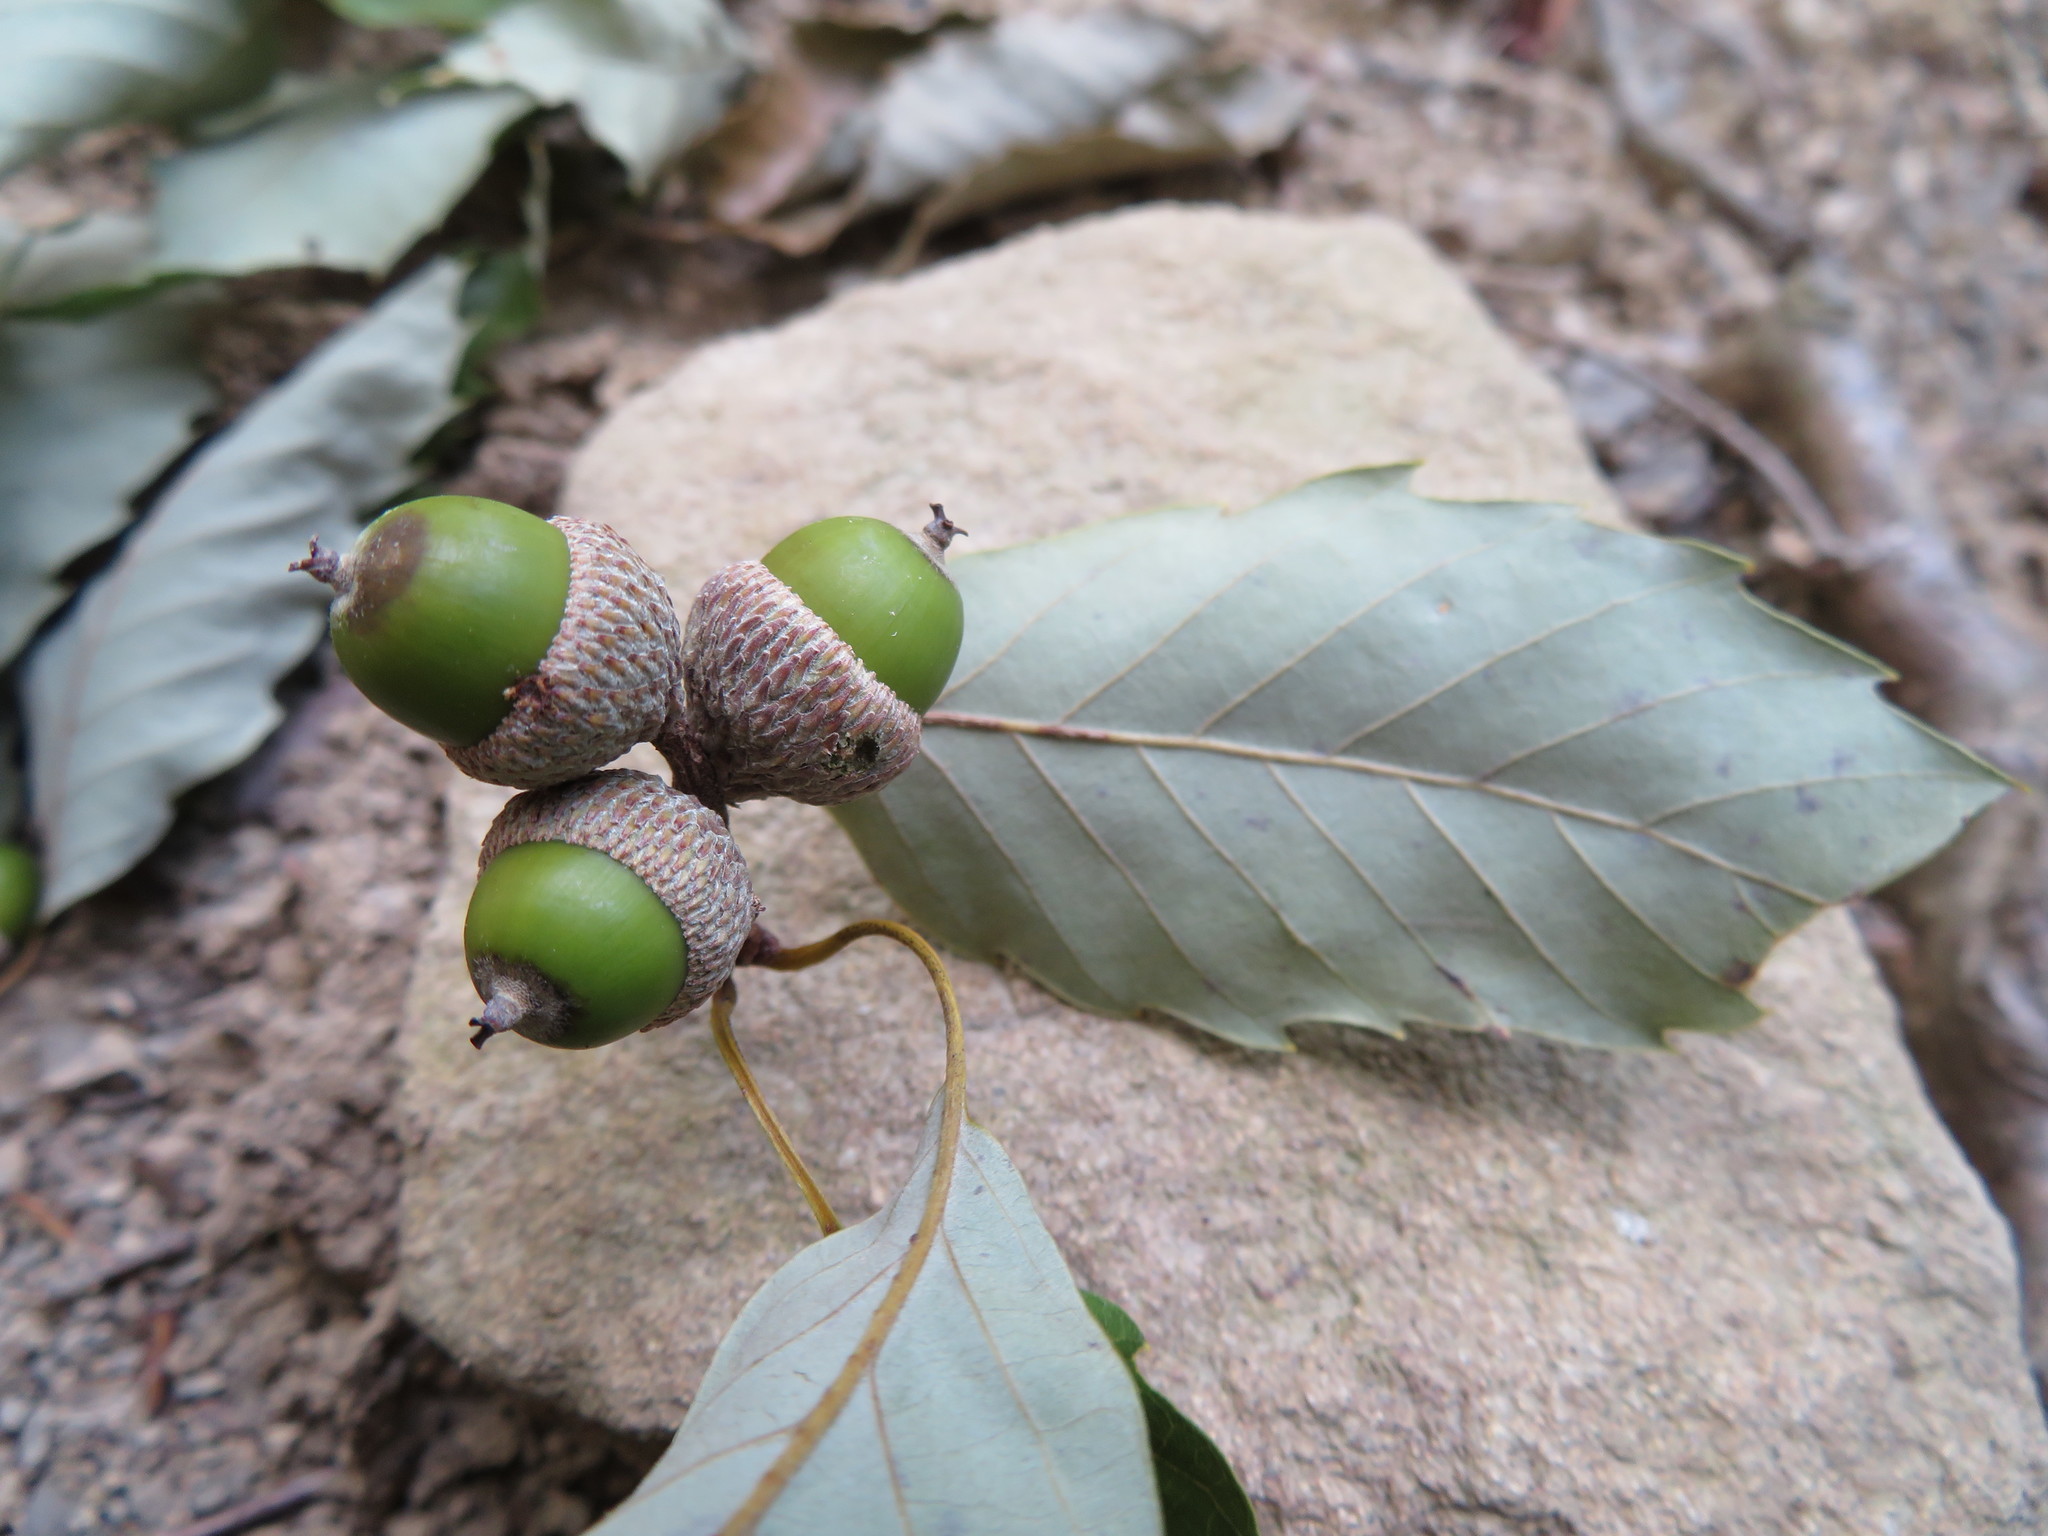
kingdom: Plantae
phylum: Tracheophyta
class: Magnoliopsida
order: Fagales
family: Fagaceae
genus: Quercus
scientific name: Quercus serrata
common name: Bao li
